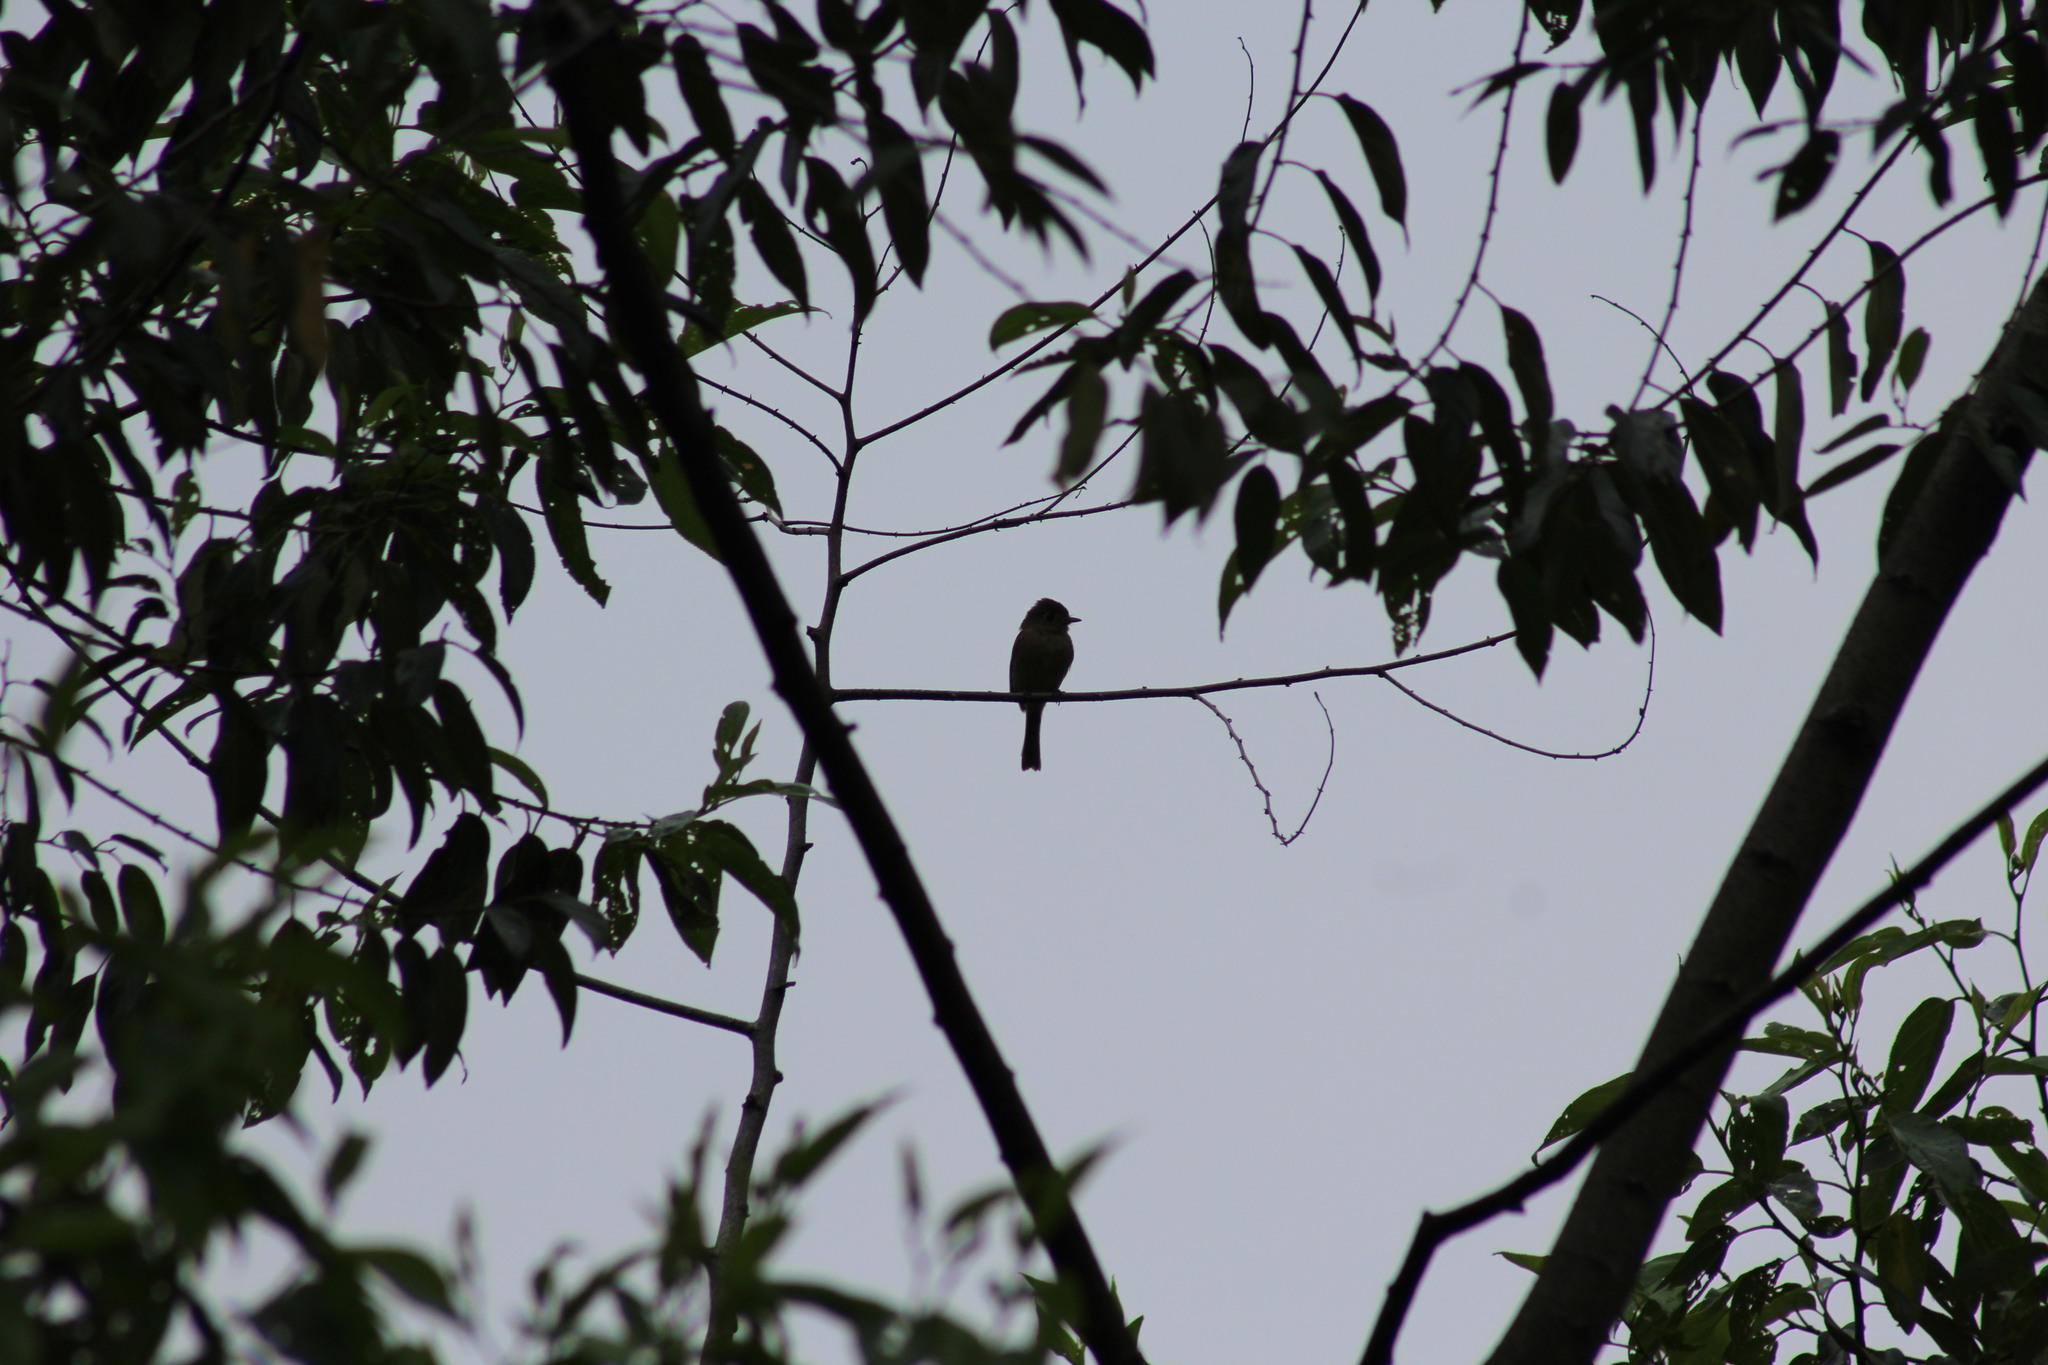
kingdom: Animalia
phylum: Chordata
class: Aves
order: Passeriformes
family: Tyrannidae
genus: Empidonax
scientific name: Empidonax difficilis
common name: Pacific-slope flycatcher
